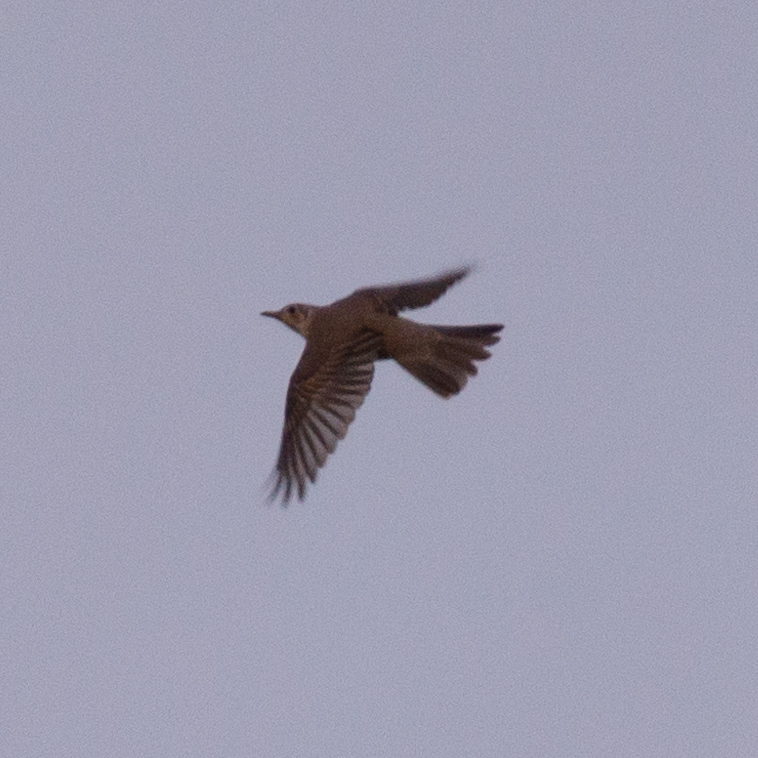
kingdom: Animalia
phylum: Chordata
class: Aves
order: Passeriformes
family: Turdidae
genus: Turdus
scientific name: Turdus viscivorus
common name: Mistle thrush
